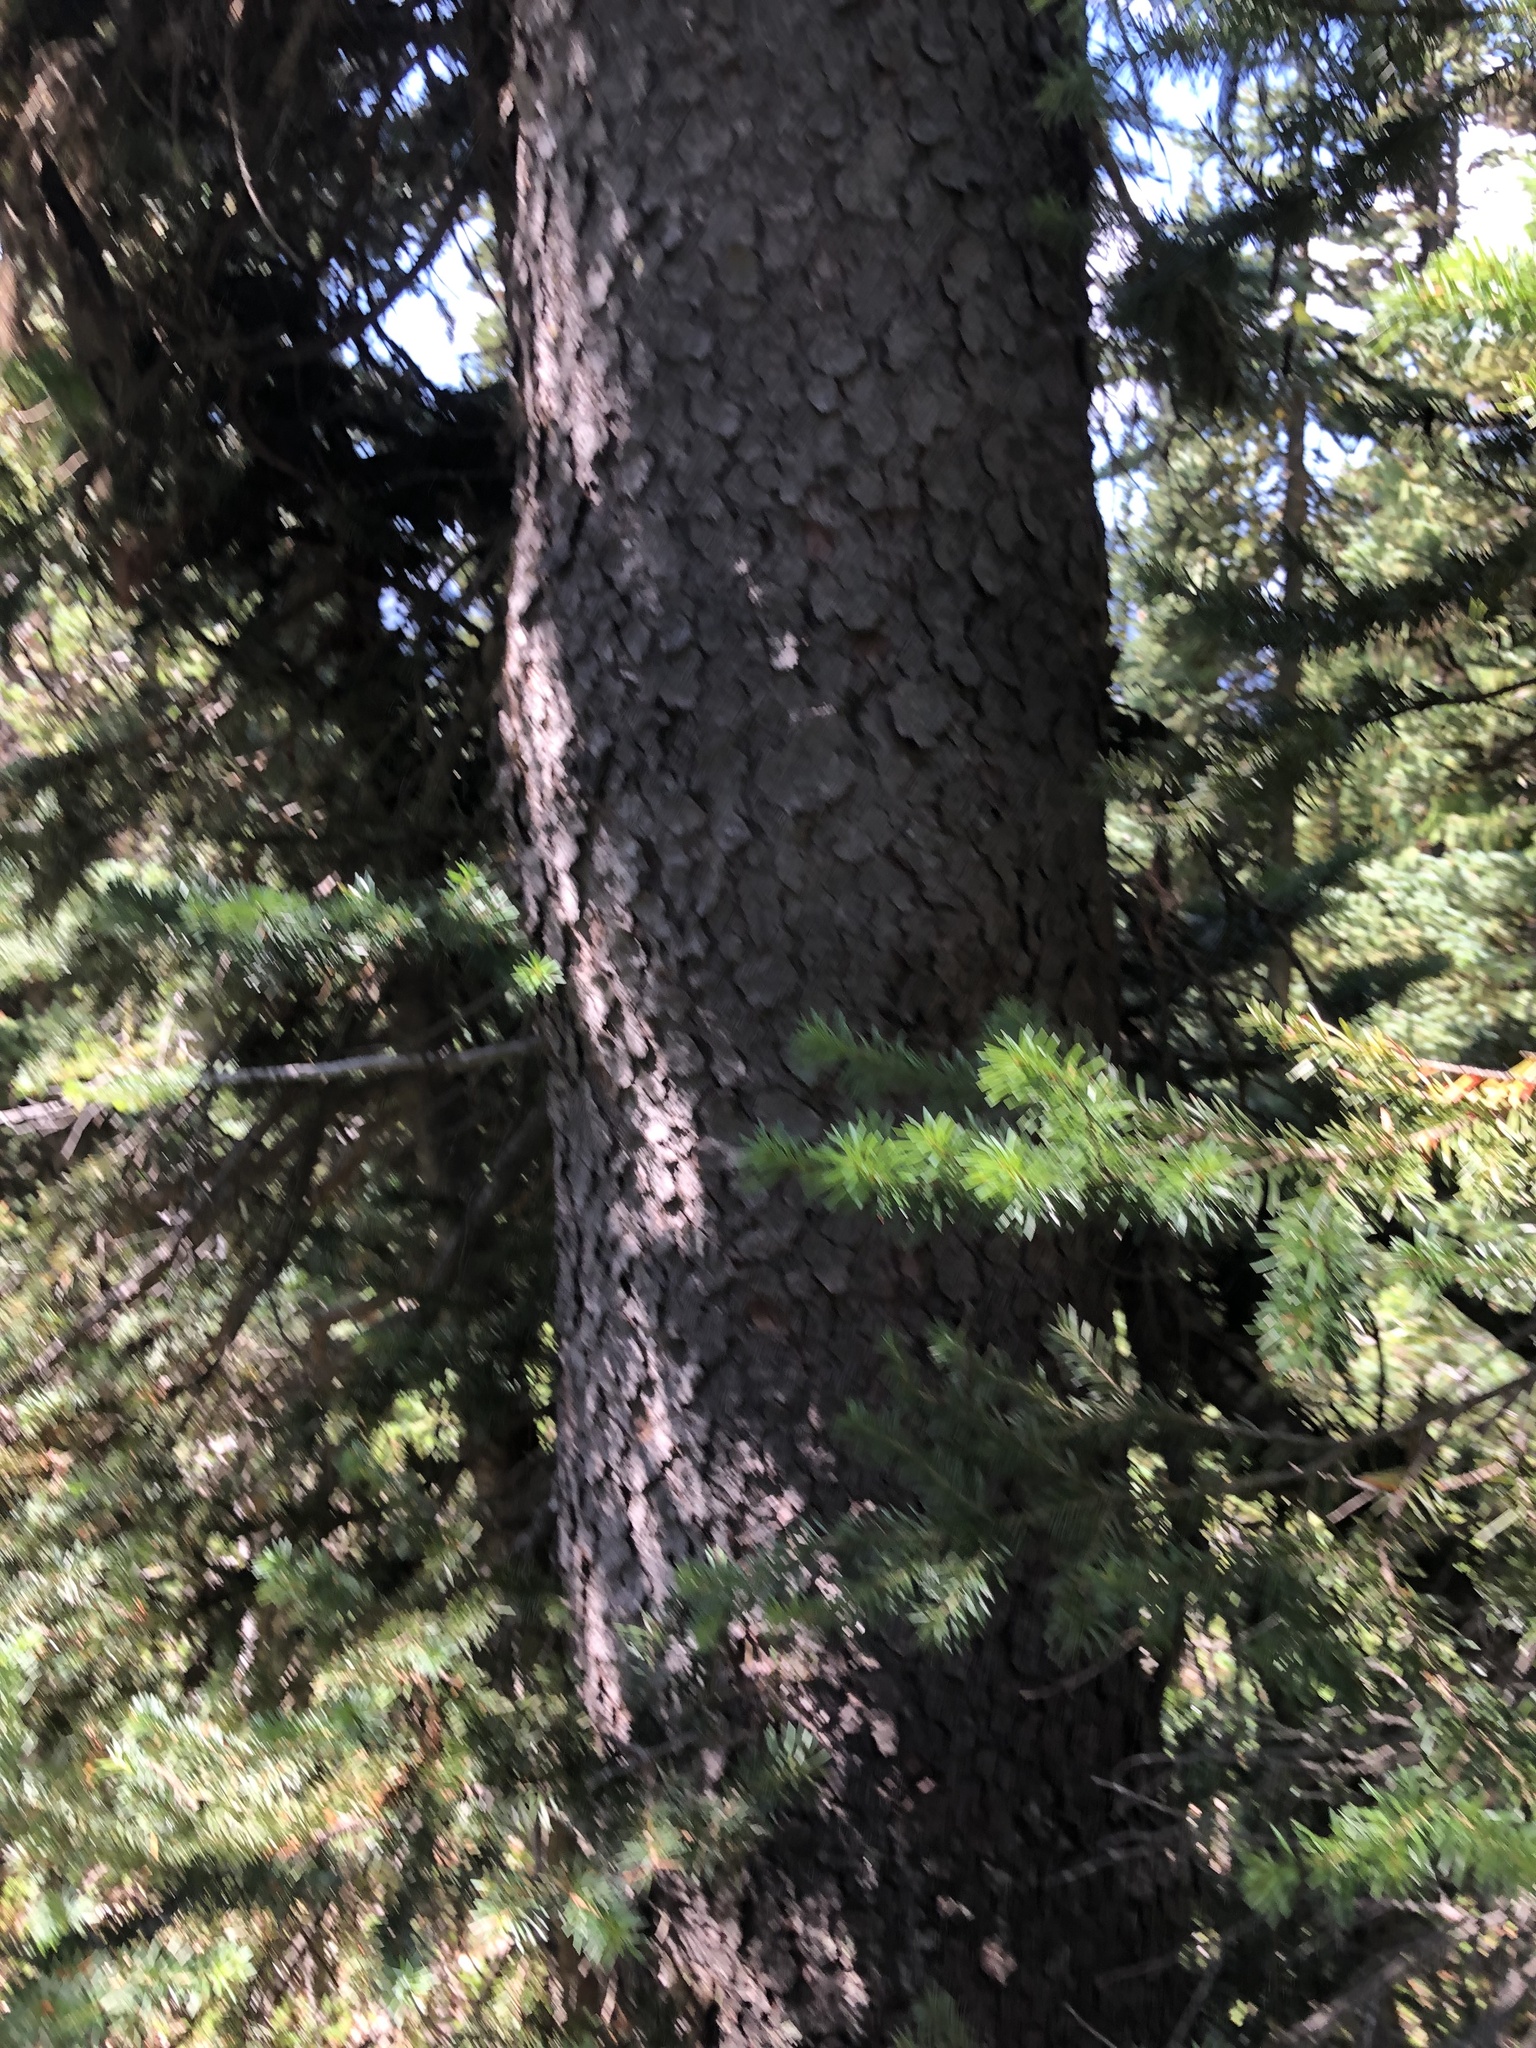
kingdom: Plantae
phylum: Tracheophyta
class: Pinopsida
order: Pinales
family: Pinaceae
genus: Picea
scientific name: Picea engelmannii
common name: Engelmann spruce
